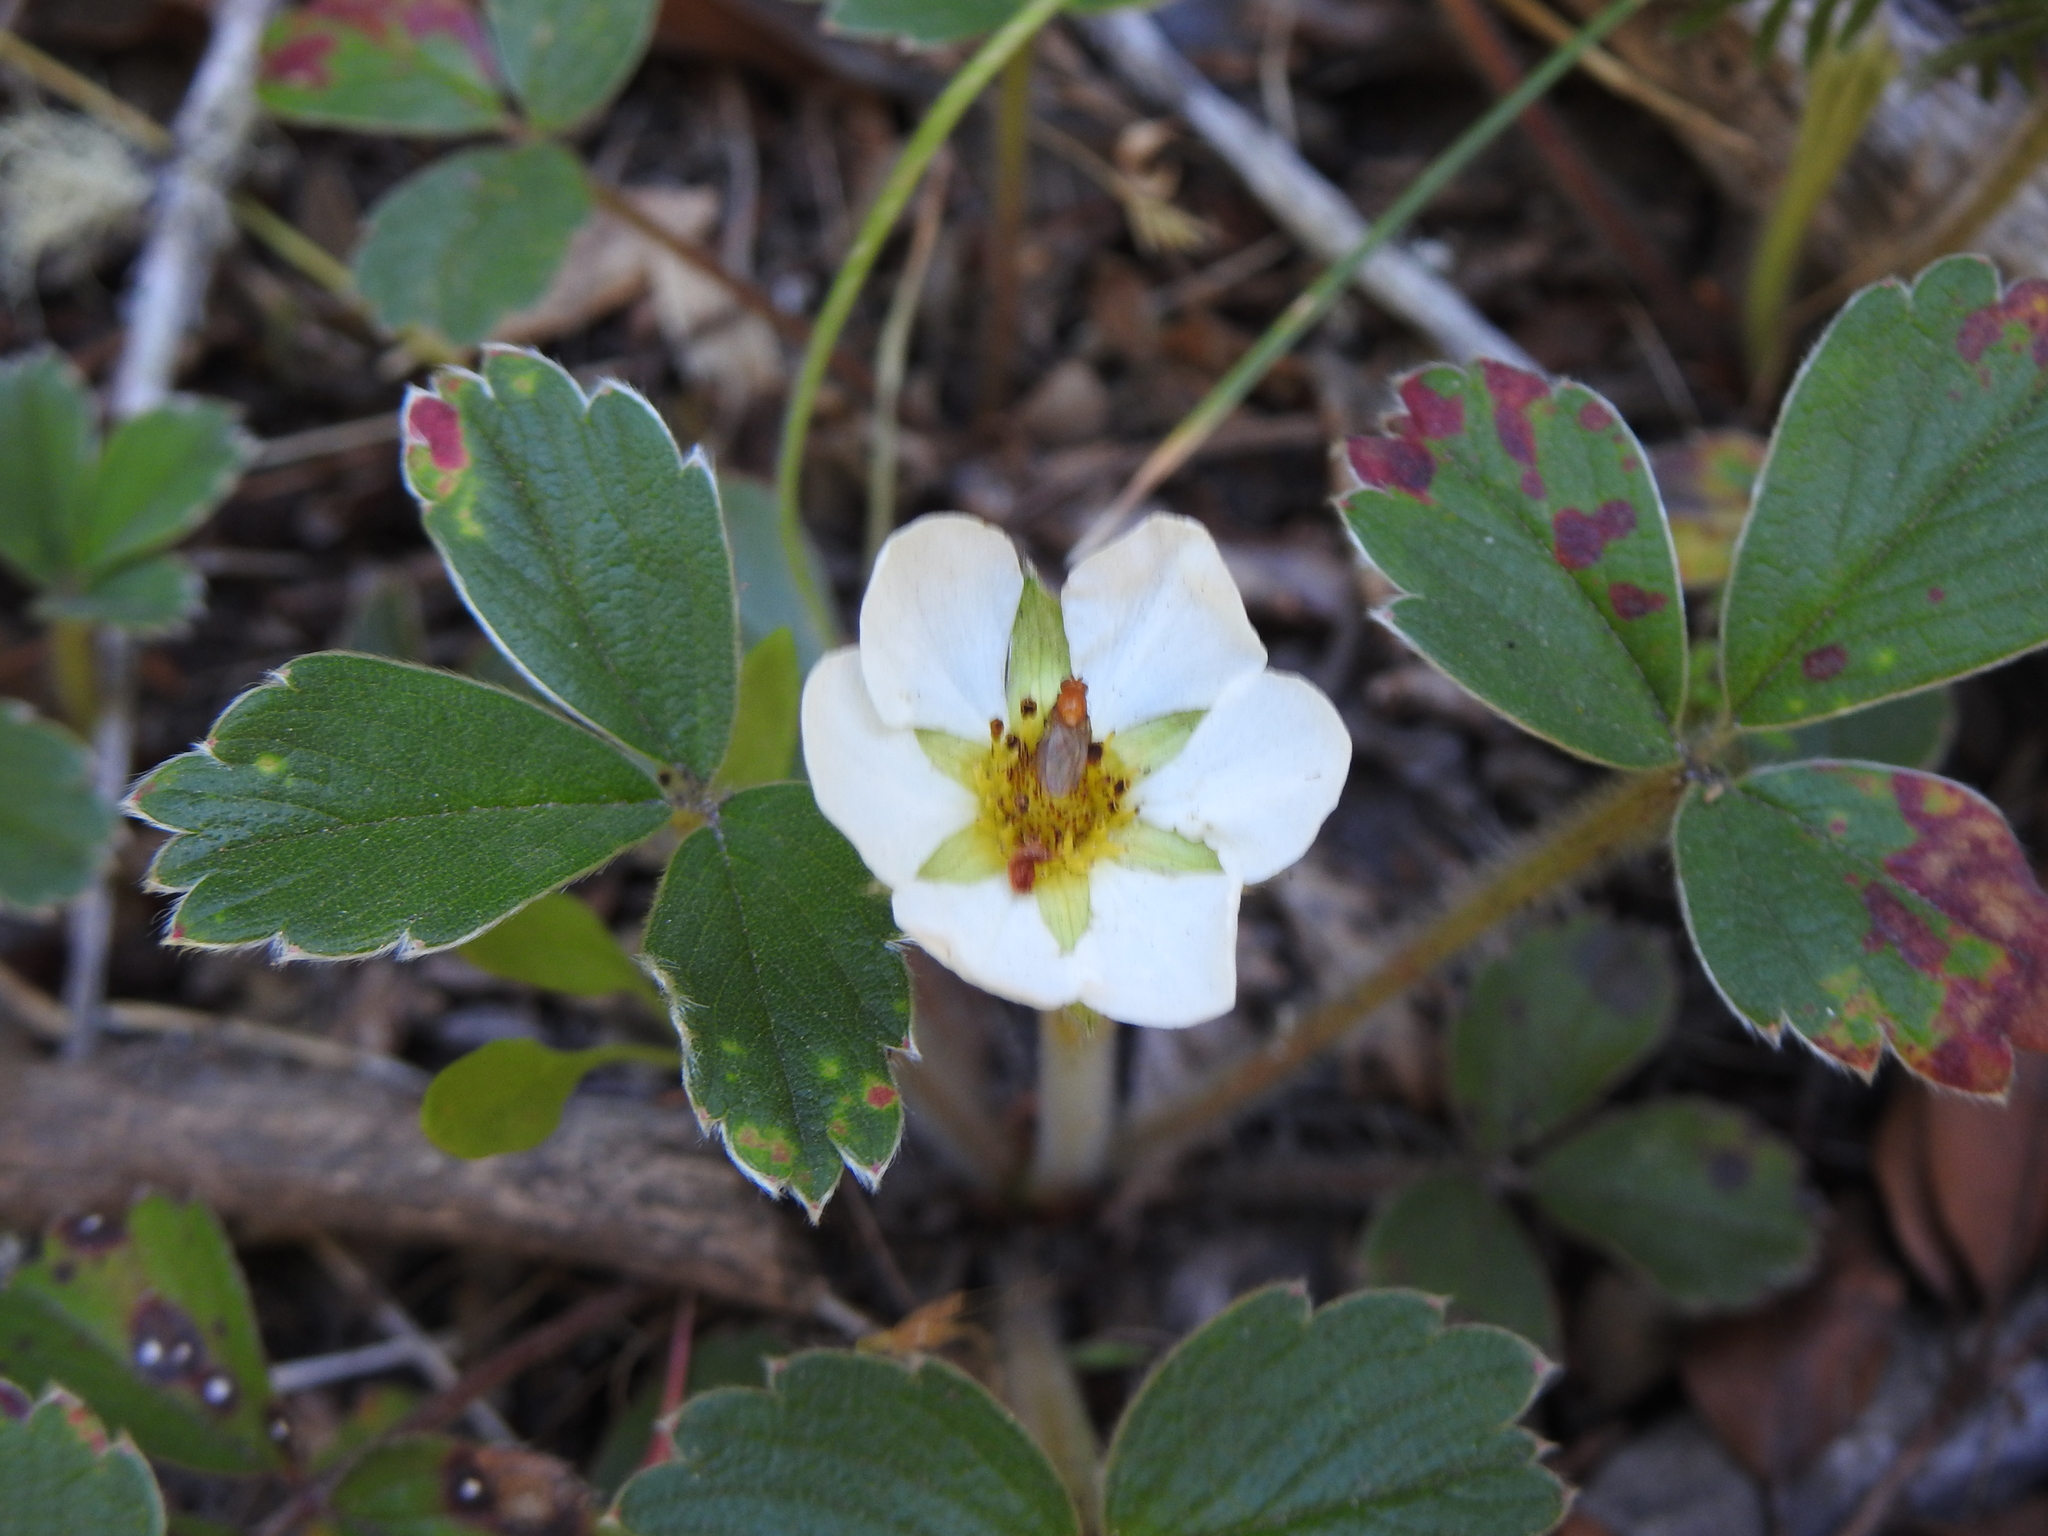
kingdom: Plantae
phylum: Tracheophyta
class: Magnoliopsida
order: Rosales
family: Rosaceae
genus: Fragaria
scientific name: Fragaria chiloensis
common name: Beach strawberry
